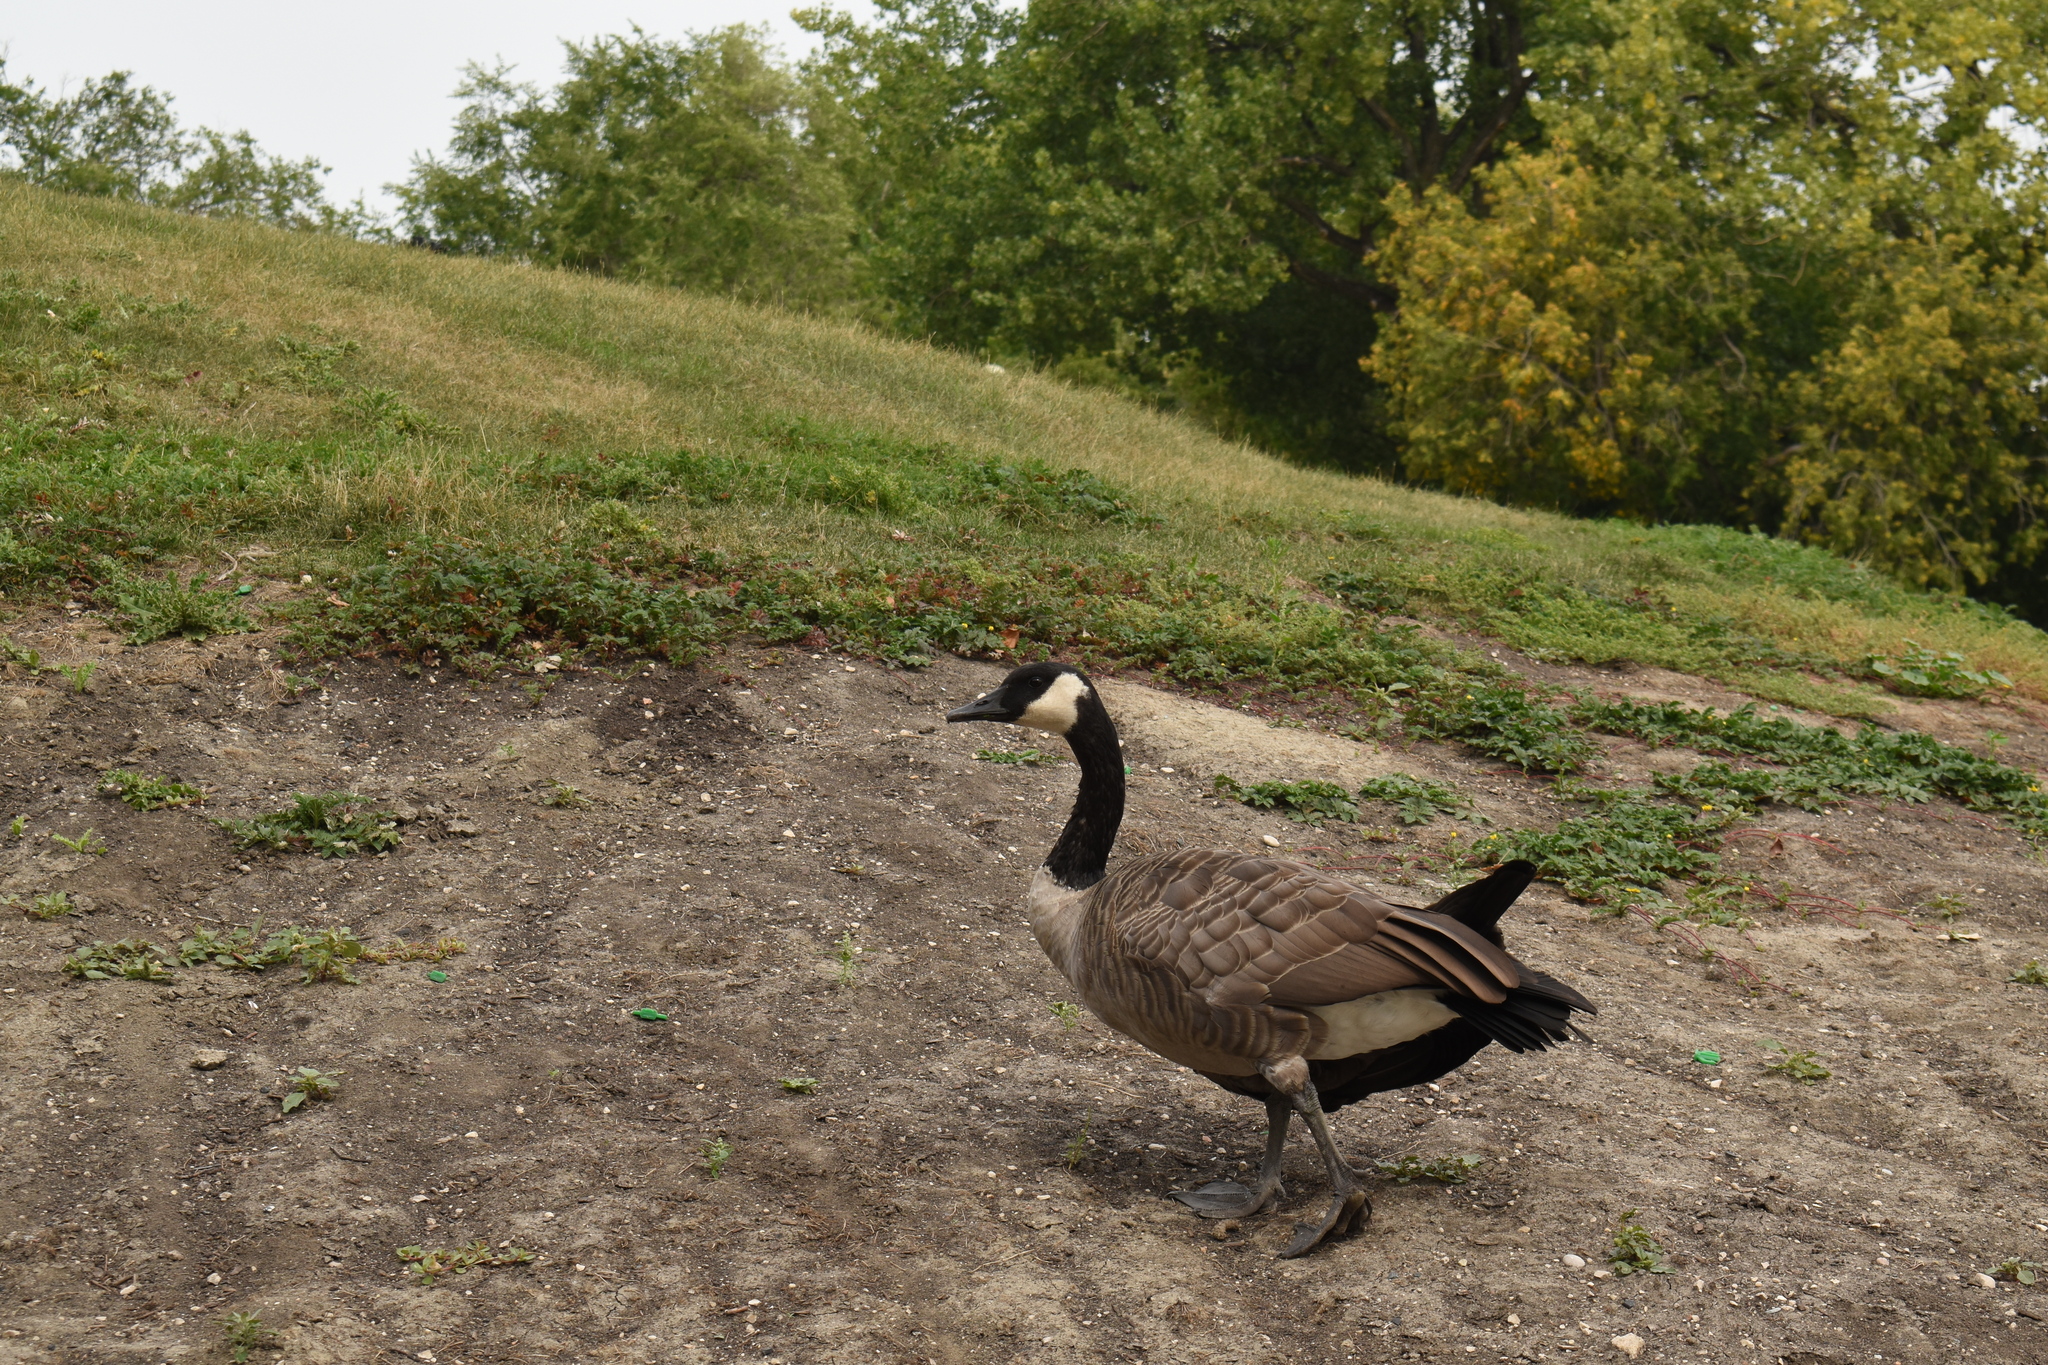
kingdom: Animalia
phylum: Chordata
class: Aves
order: Anseriformes
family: Anatidae
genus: Branta
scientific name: Branta canadensis
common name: Canada goose
